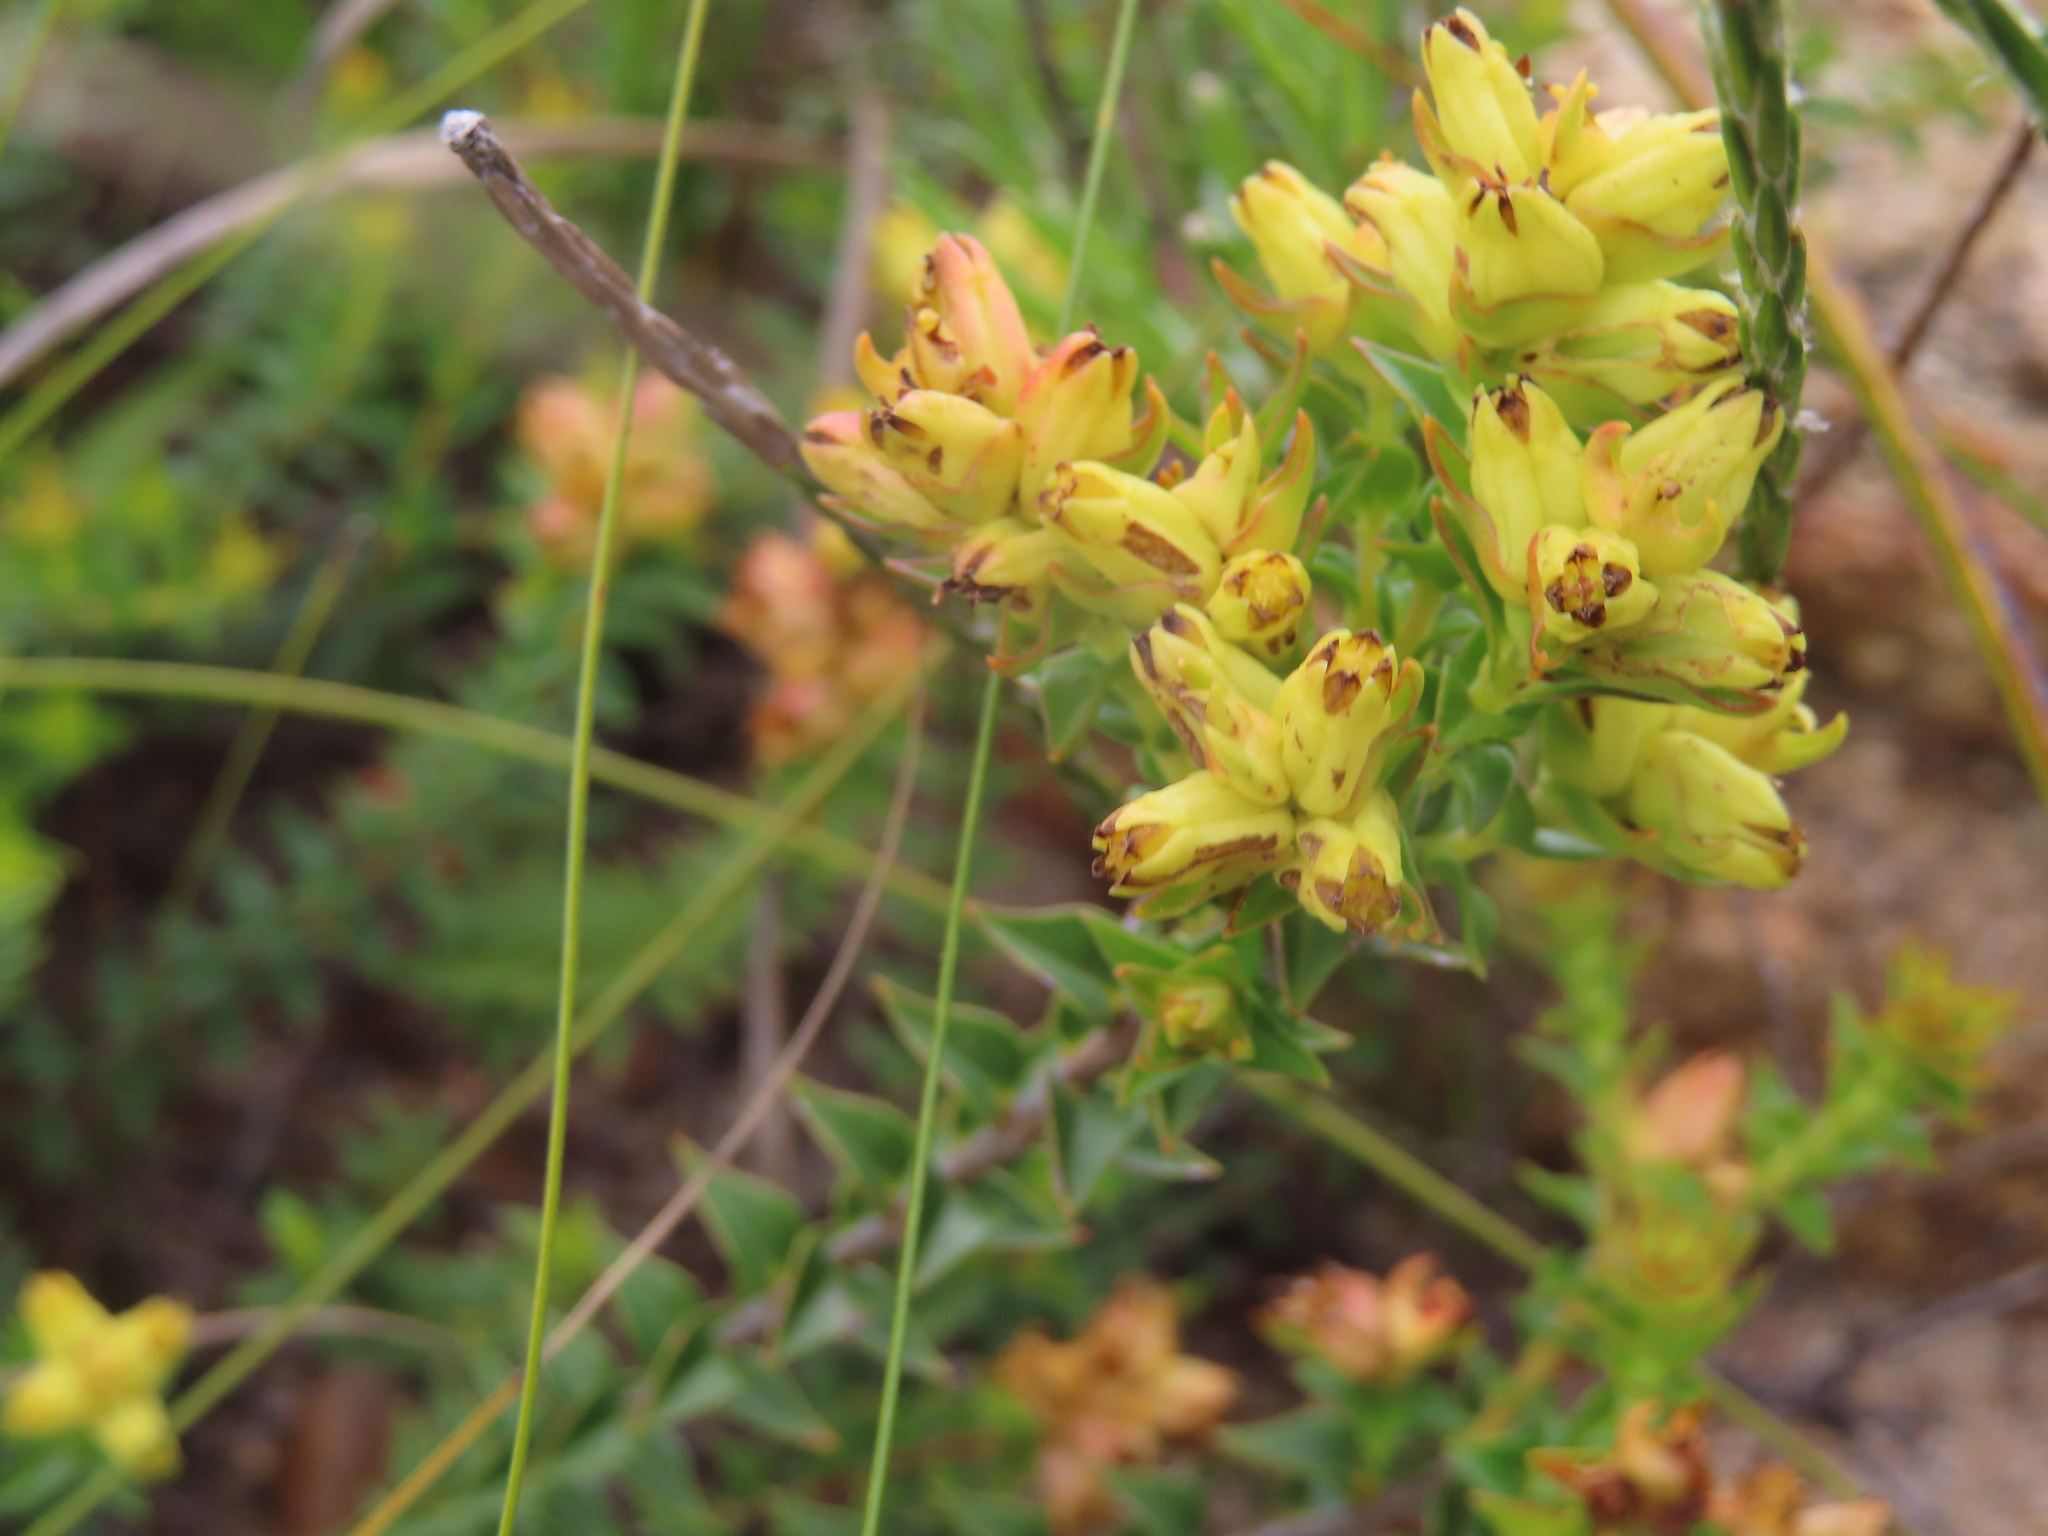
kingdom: Plantae
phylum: Tracheophyta
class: Magnoliopsida
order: Myrtales
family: Penaeaceae
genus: Penaea
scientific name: Penaea mucronata
